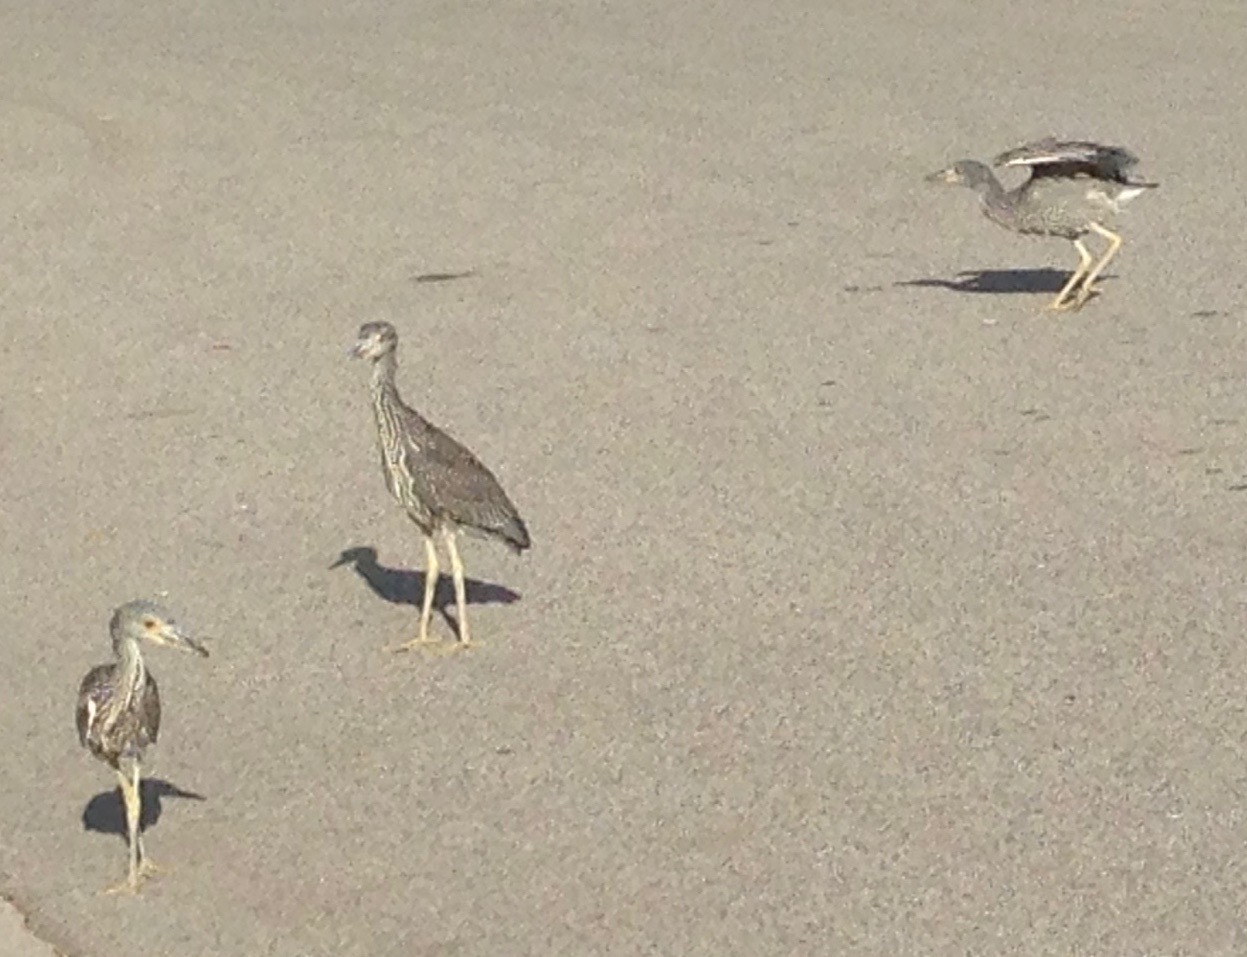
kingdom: Animalia
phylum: Chordata
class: Aves
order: Pelecaniformes
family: Ardeidae
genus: Nyctanassa
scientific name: Nyctanassa violacea
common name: Yellow-crowned night heron
